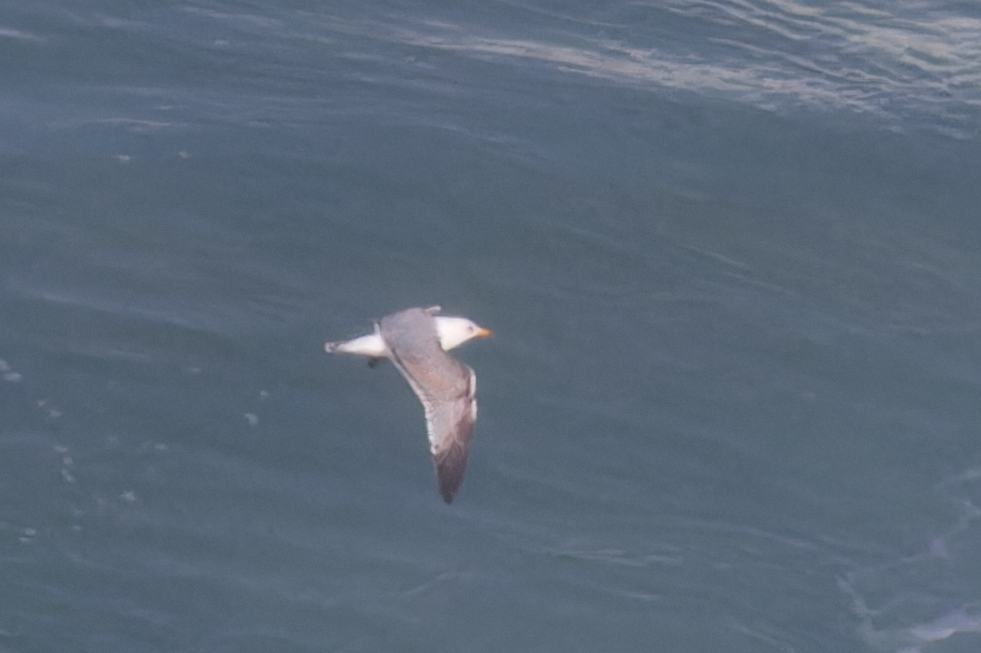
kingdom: Animalia
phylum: Chordata
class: Aves
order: Charadriiformes
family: Laridae
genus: Larus
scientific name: Larus michahellis
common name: Yellow-legged gull
